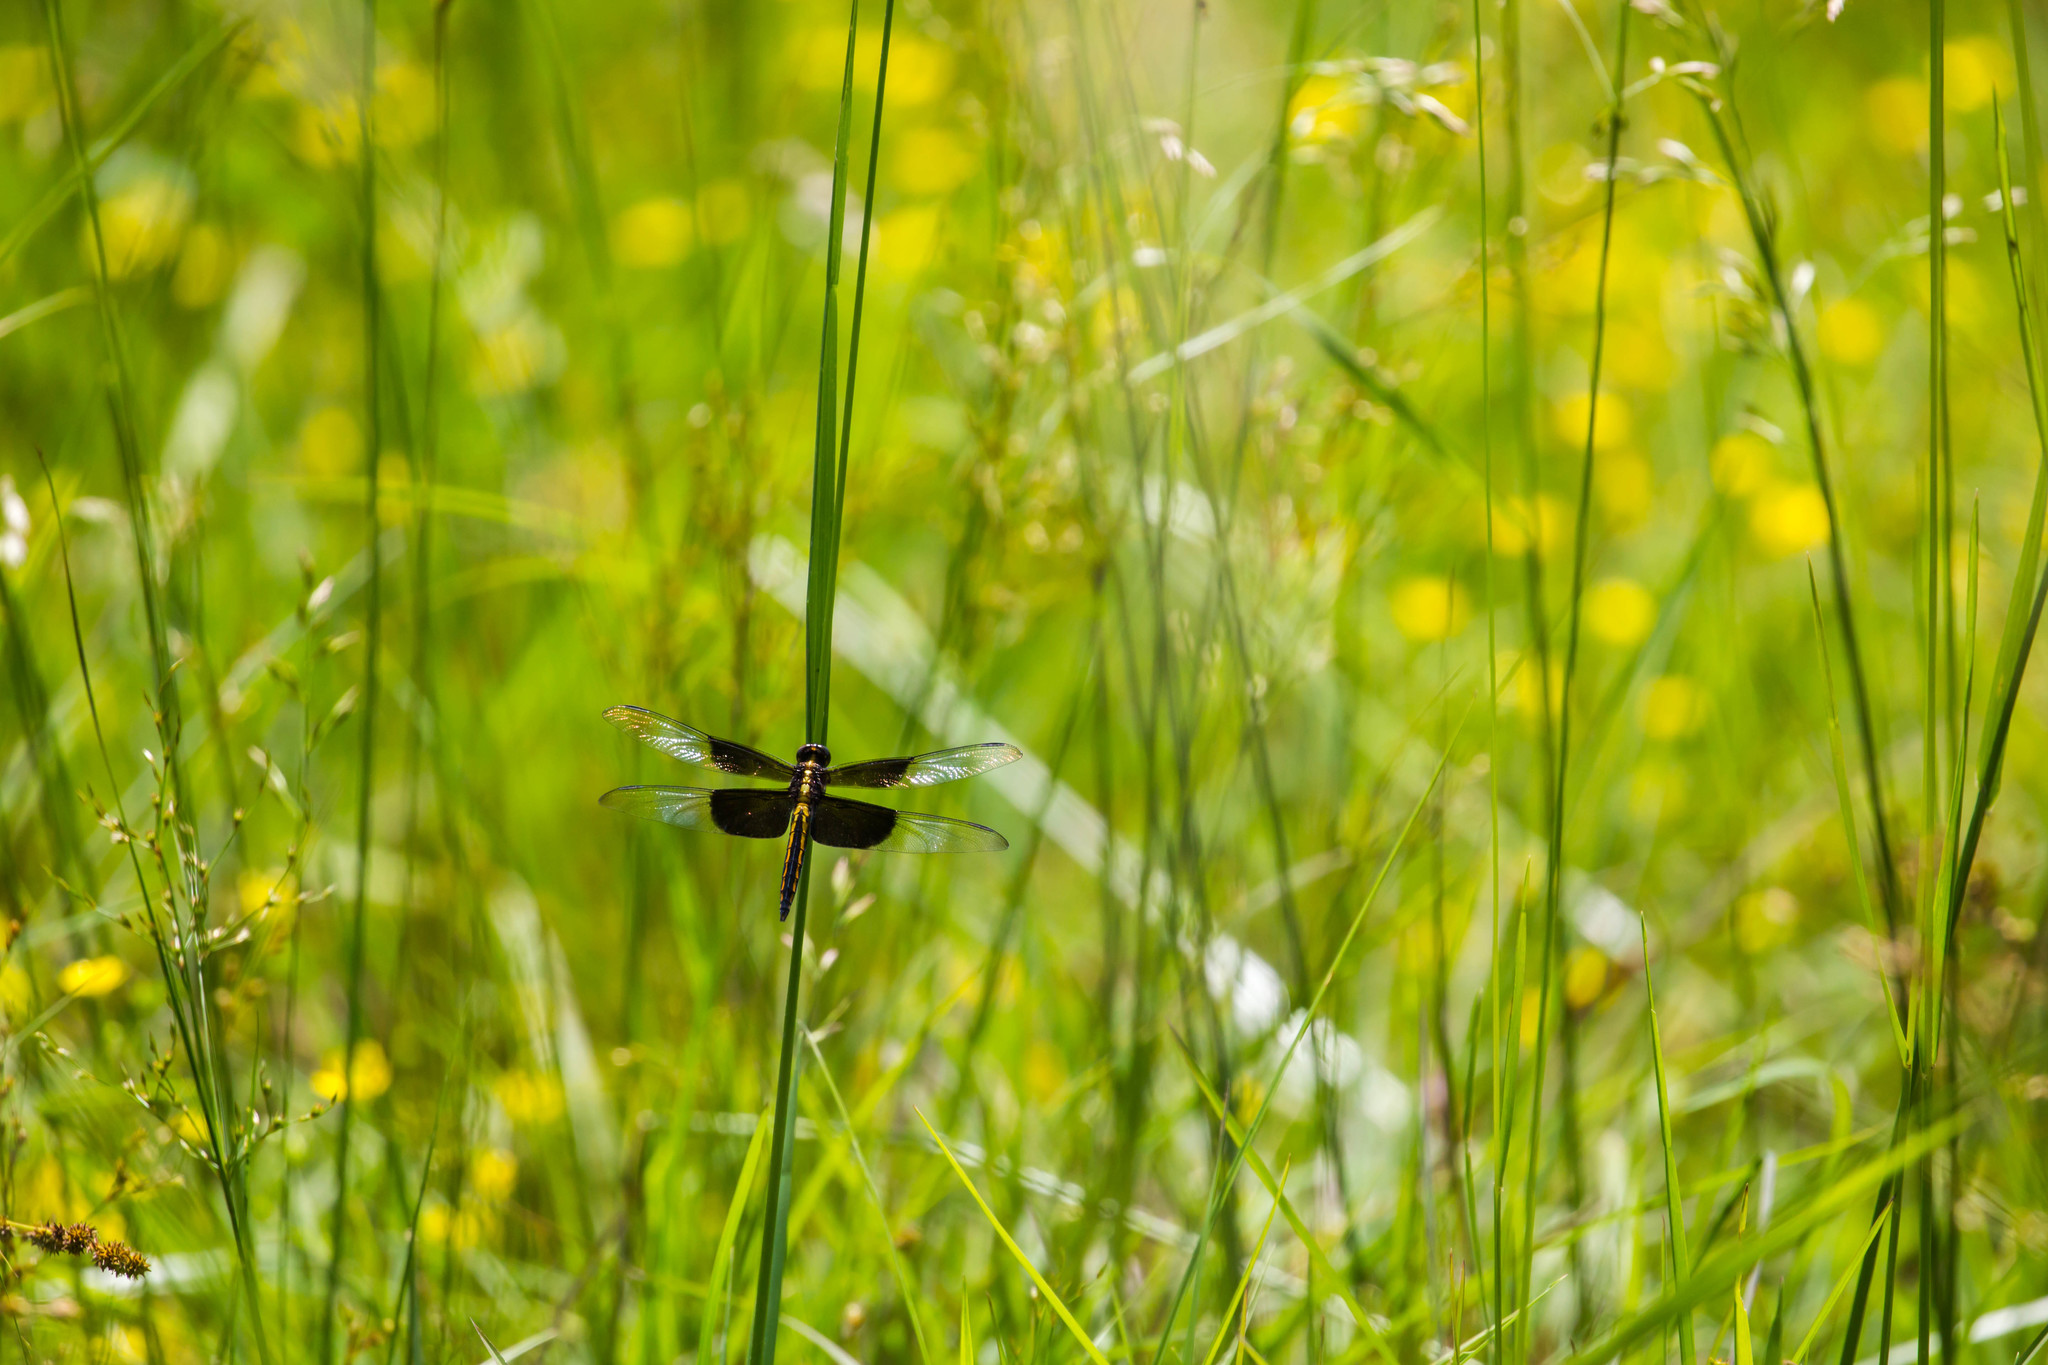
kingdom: Animalia
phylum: Arthropoda
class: Insecta
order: Odonata
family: Libellulidae
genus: Libellula
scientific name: Libellula luctuosa
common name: Widow skimmer
